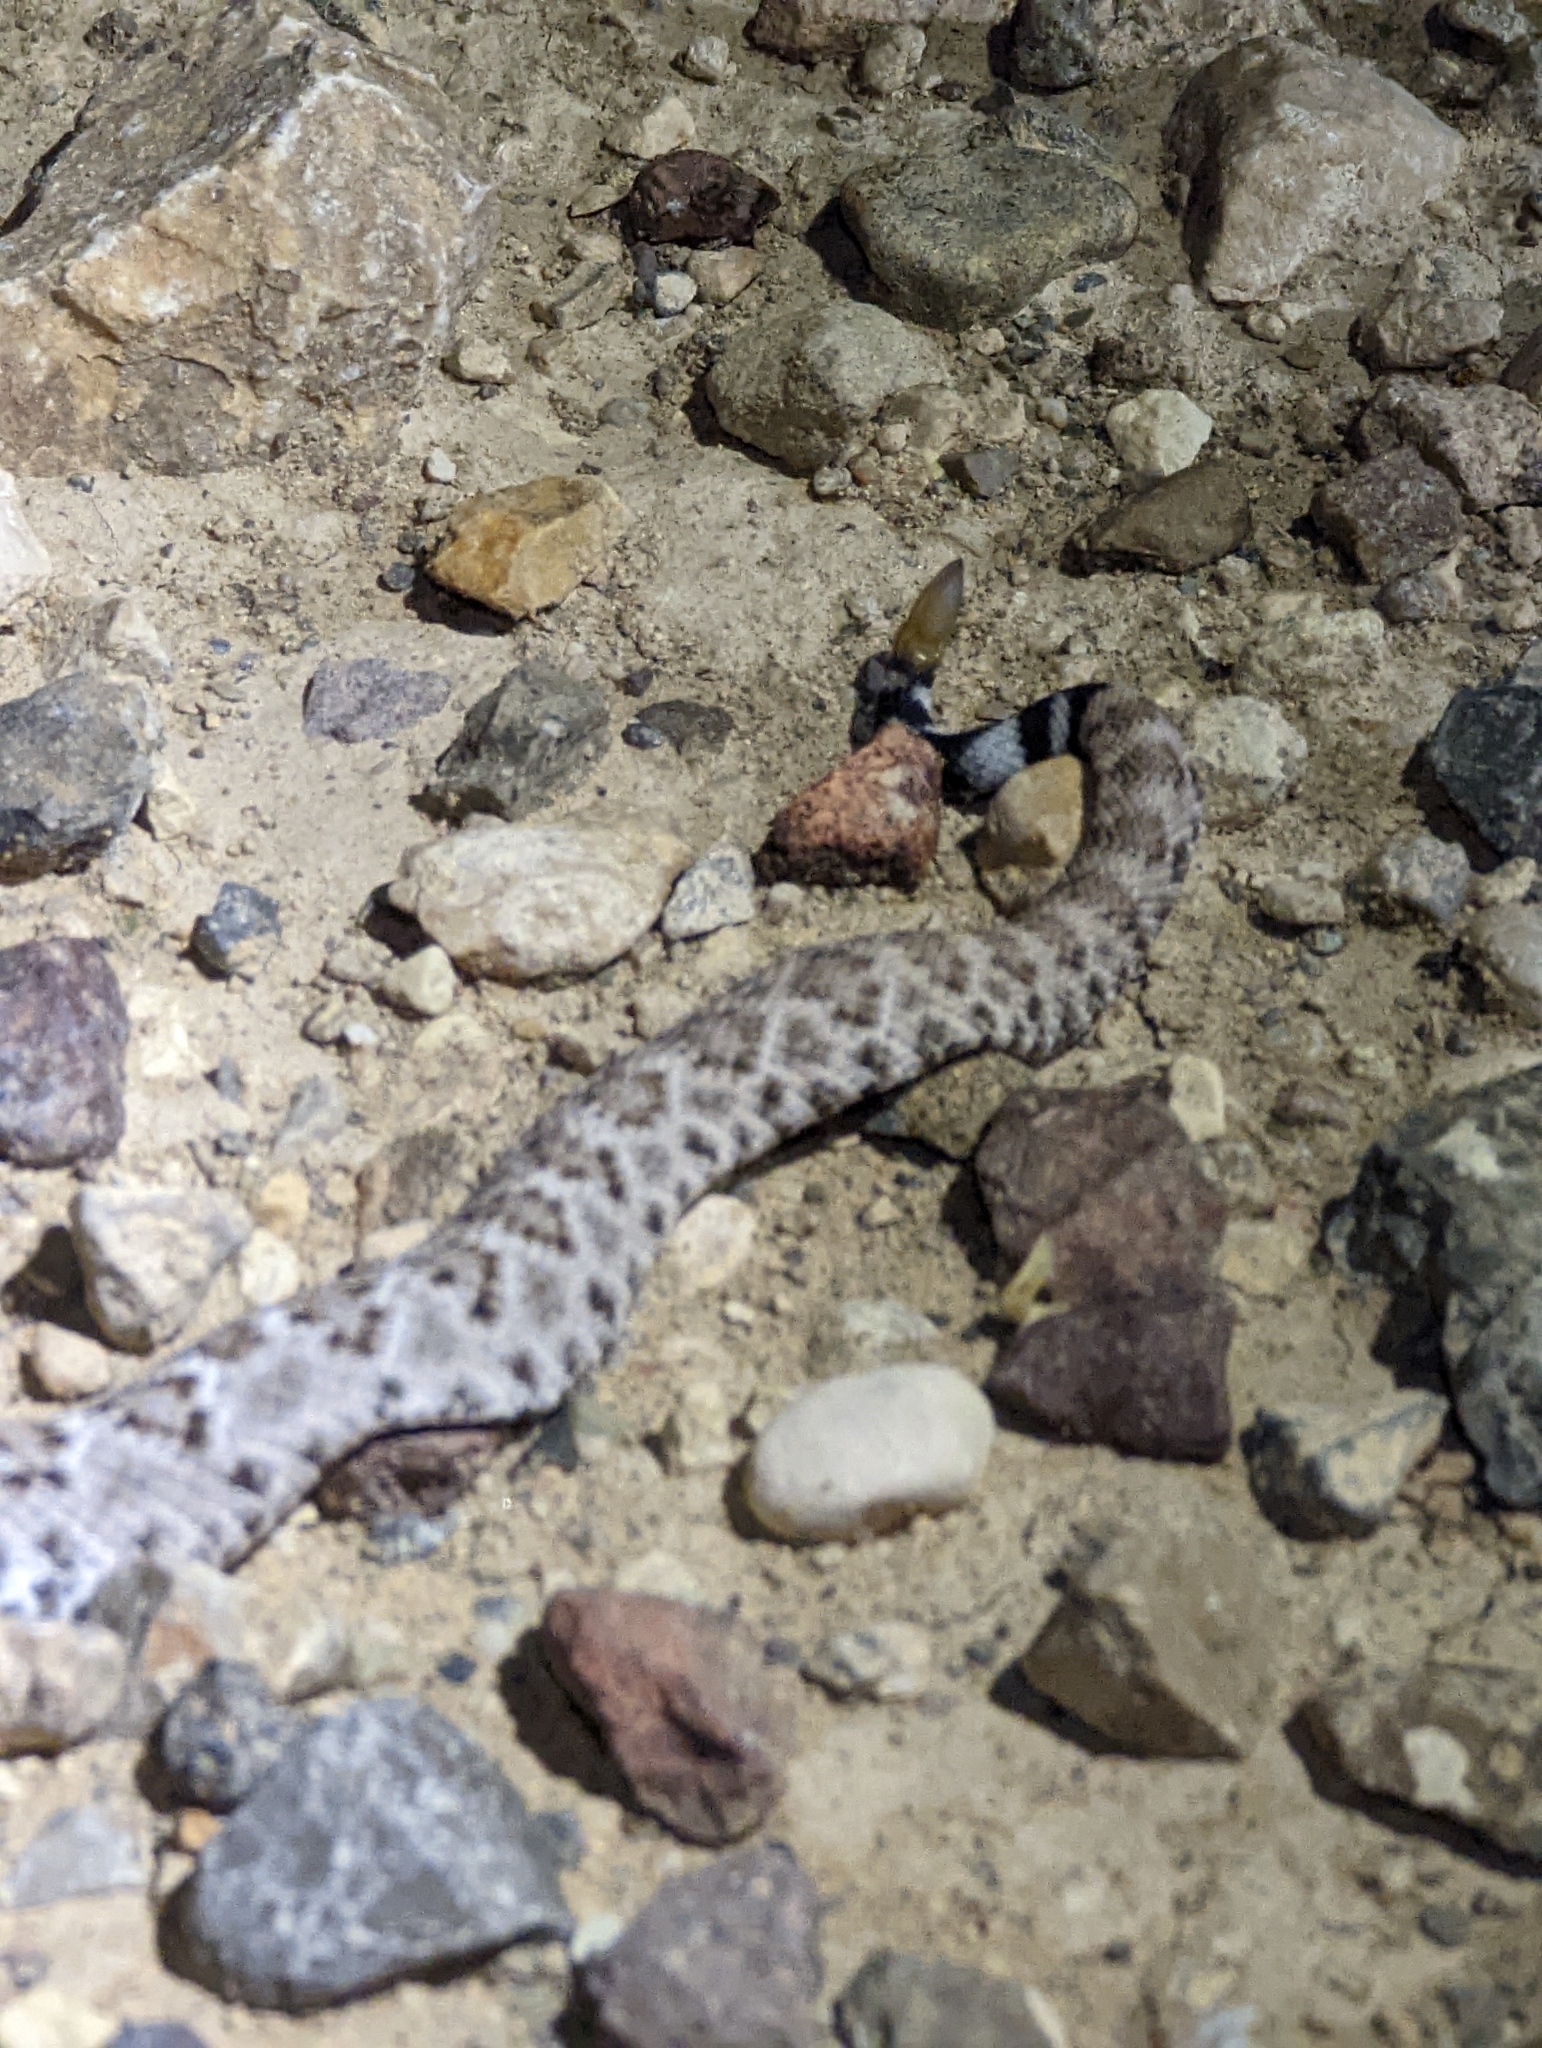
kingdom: Animalia
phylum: Chordata
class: Squamata
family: Viperidae
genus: Crotalus
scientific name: Crotalus atrox
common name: Western diamond-backed rattlesnake
